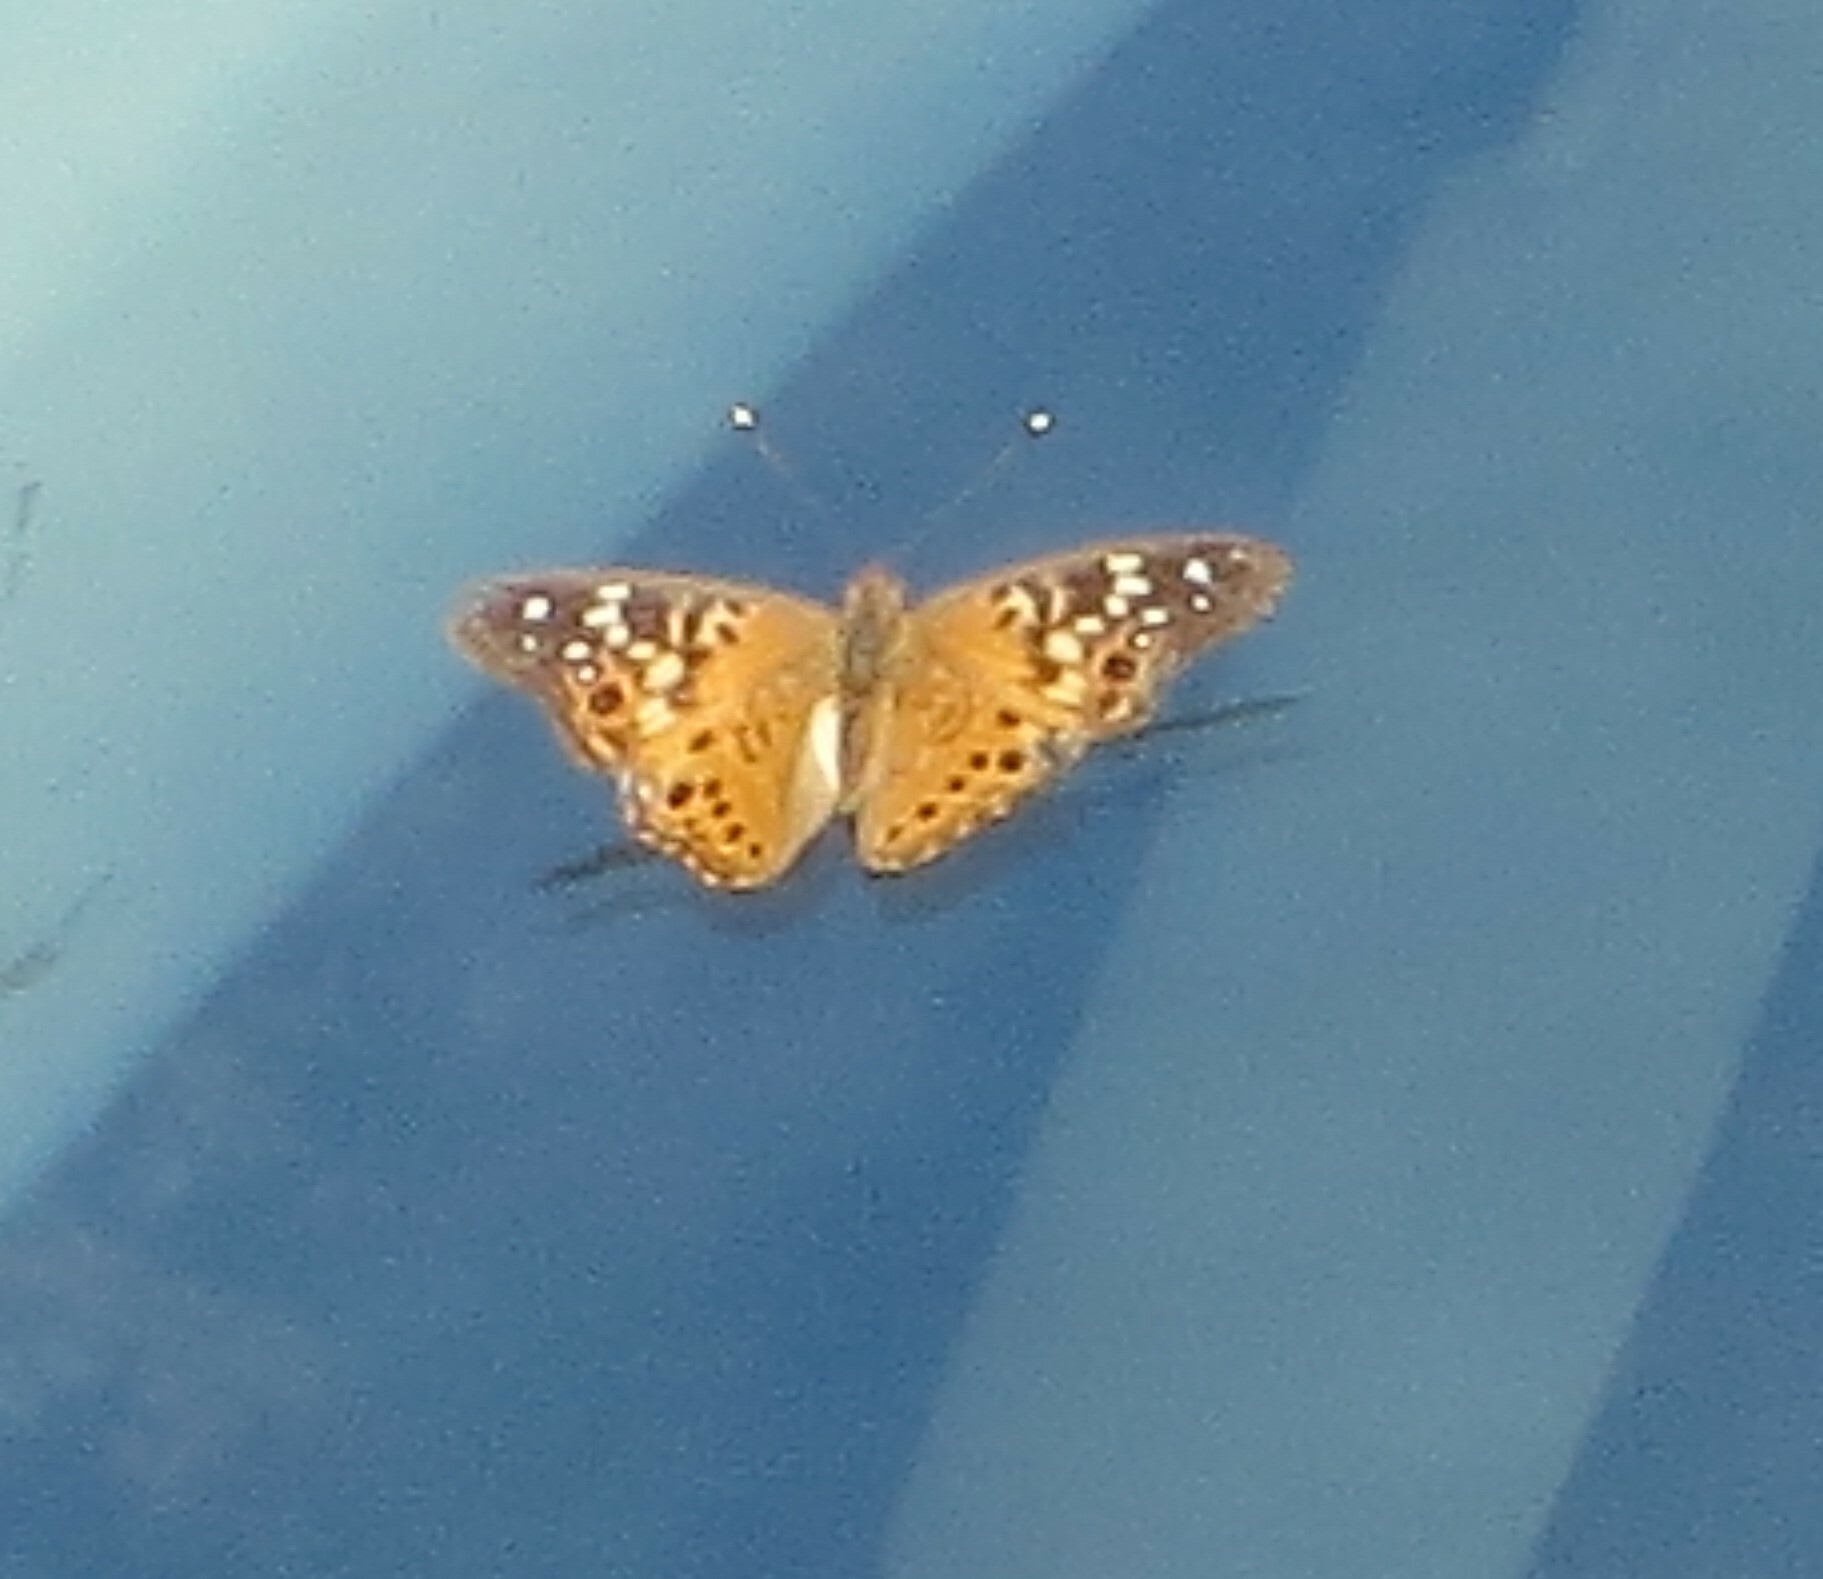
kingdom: Animalia
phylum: Arthropoda
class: Insecta
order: Lepidoptera
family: Nymphalidae
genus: Asterocampa
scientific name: Asterocampa celtis
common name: Hackberry emperor
